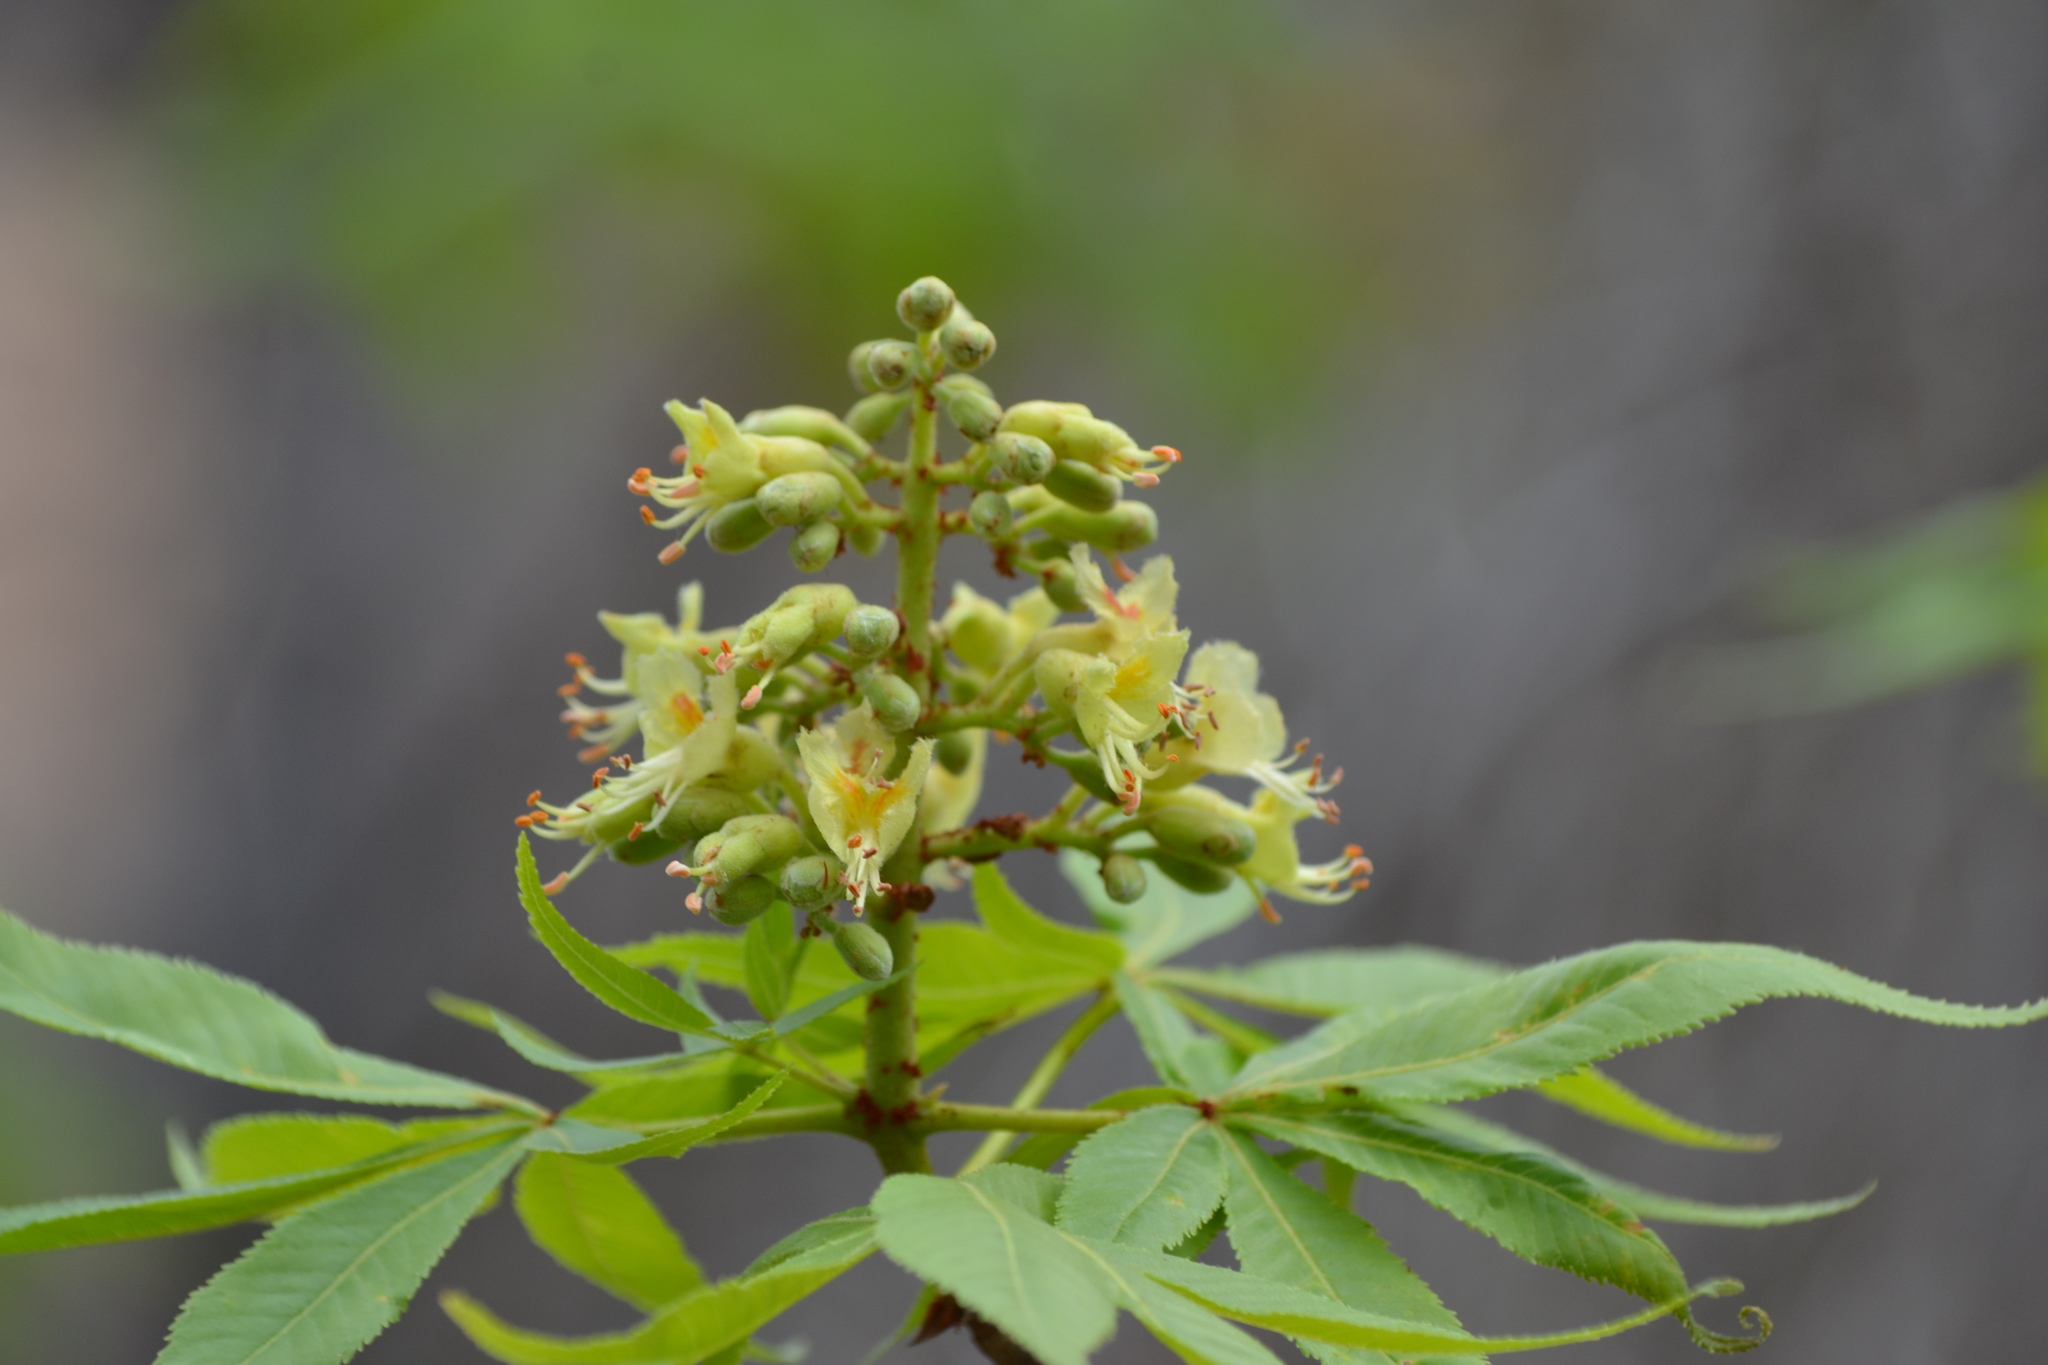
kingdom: Plantae
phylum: Tracheophyta
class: Magnoliopsida
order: Sapindales
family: Sapindaceae
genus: Aesculus
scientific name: Aesculus glabra
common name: Ohio buckeye
